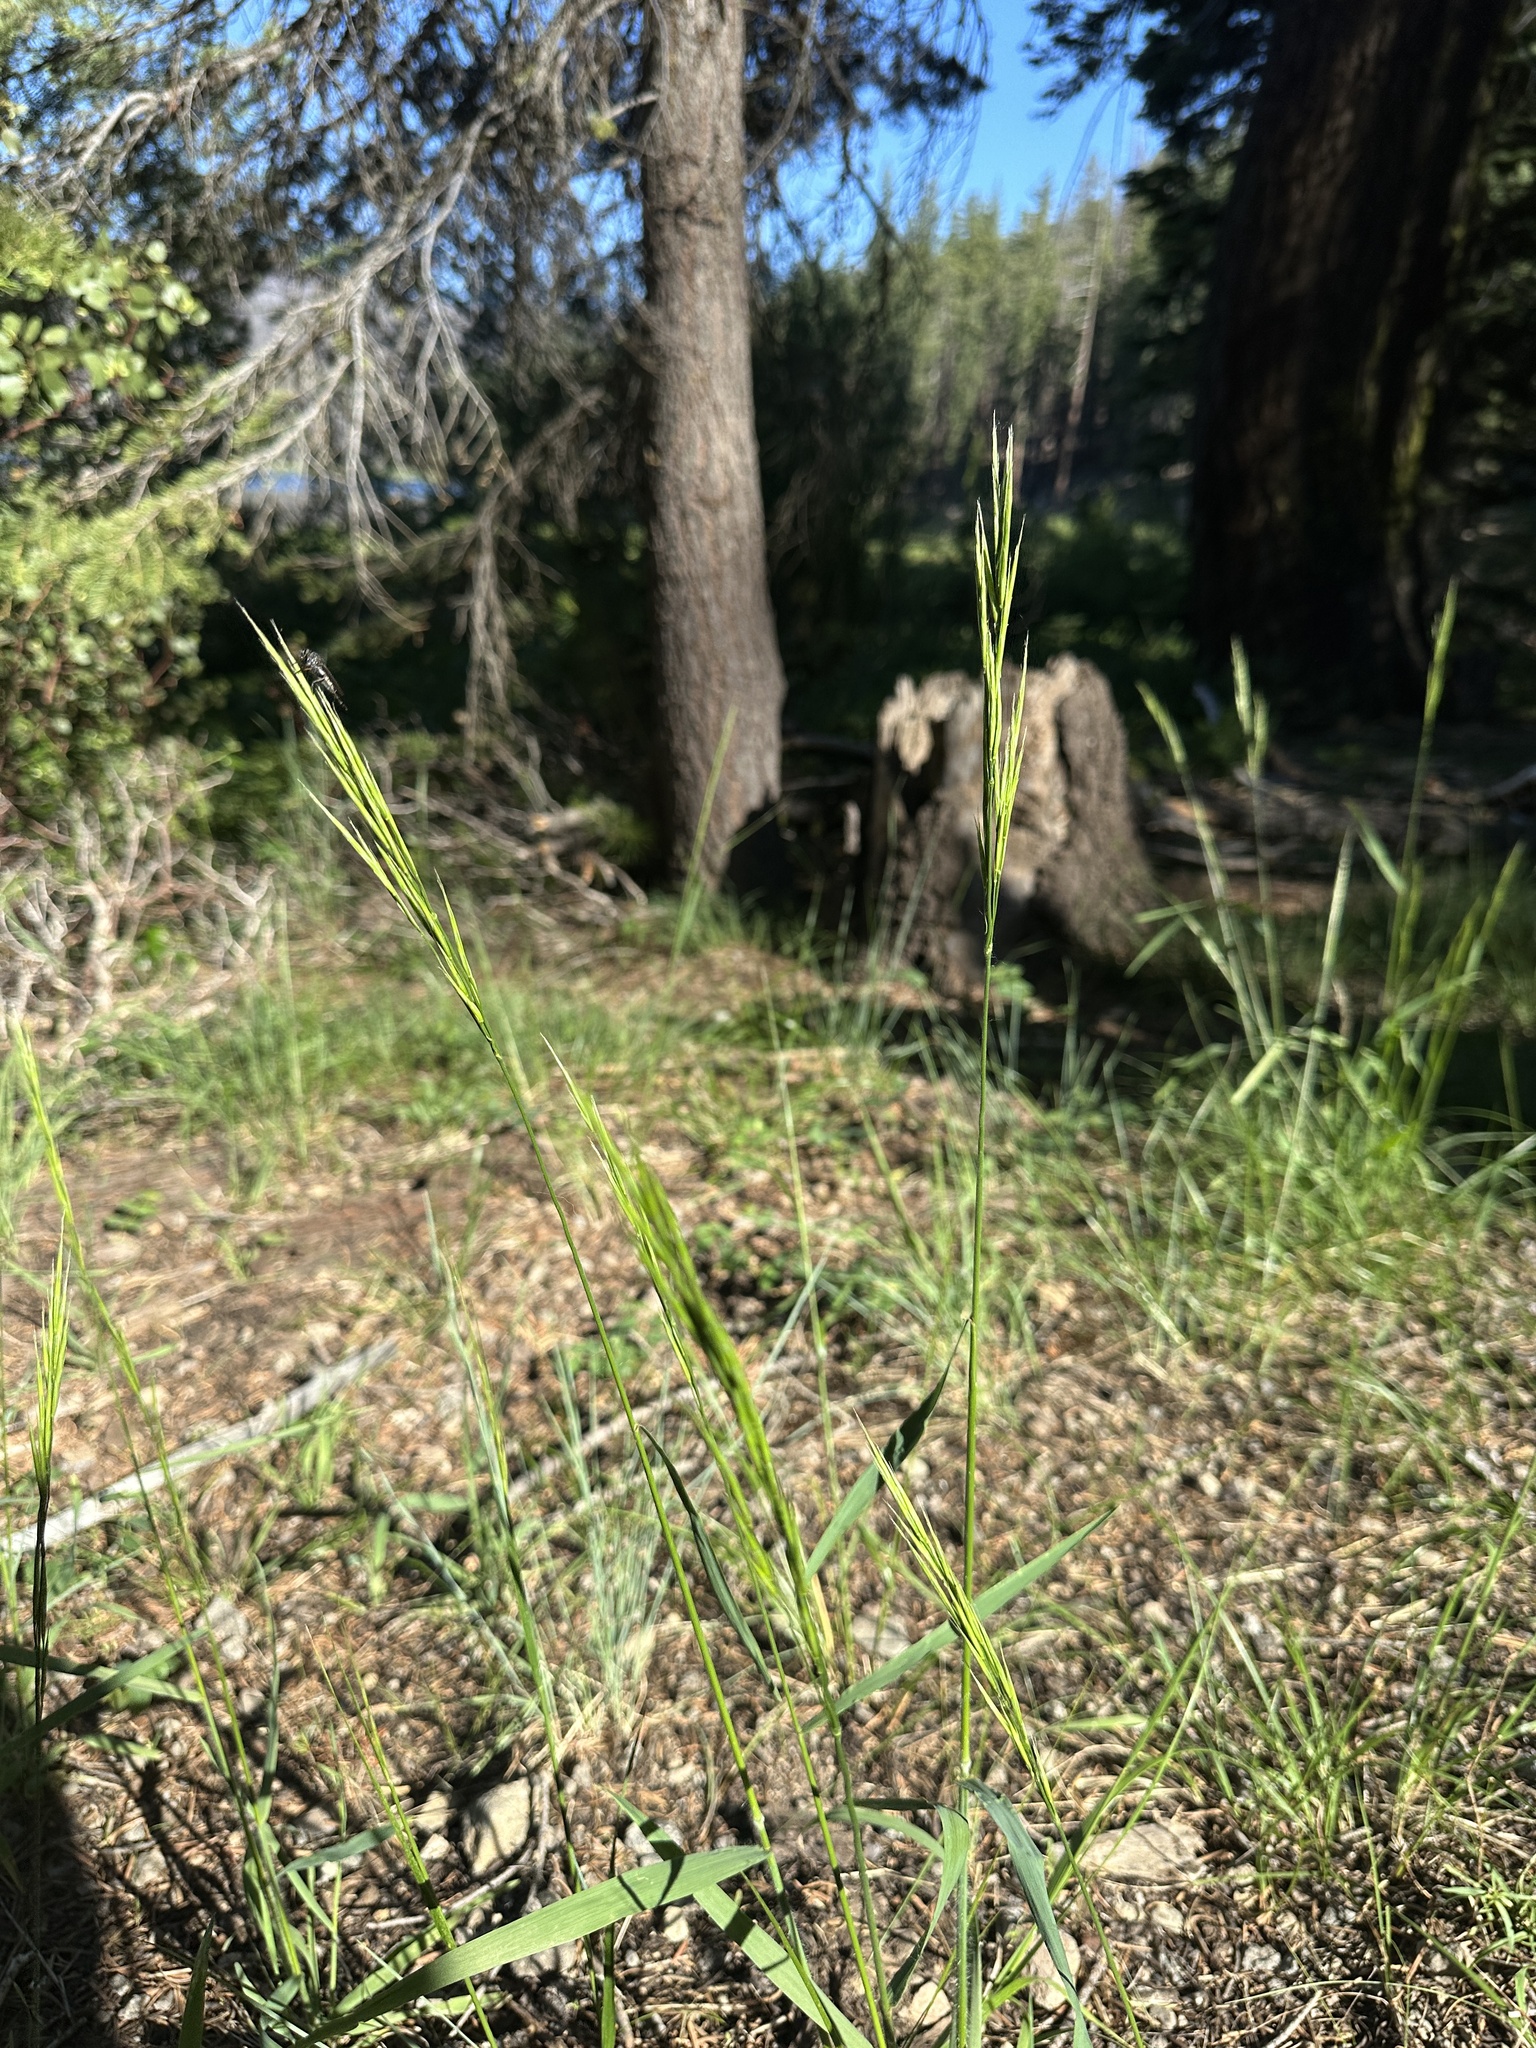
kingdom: Plantae
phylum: Tracheophyta
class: Liliopsida
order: Poales
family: Poaceae
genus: Bromus
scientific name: Bromus suksdorfii
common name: Suksdorf's brome
